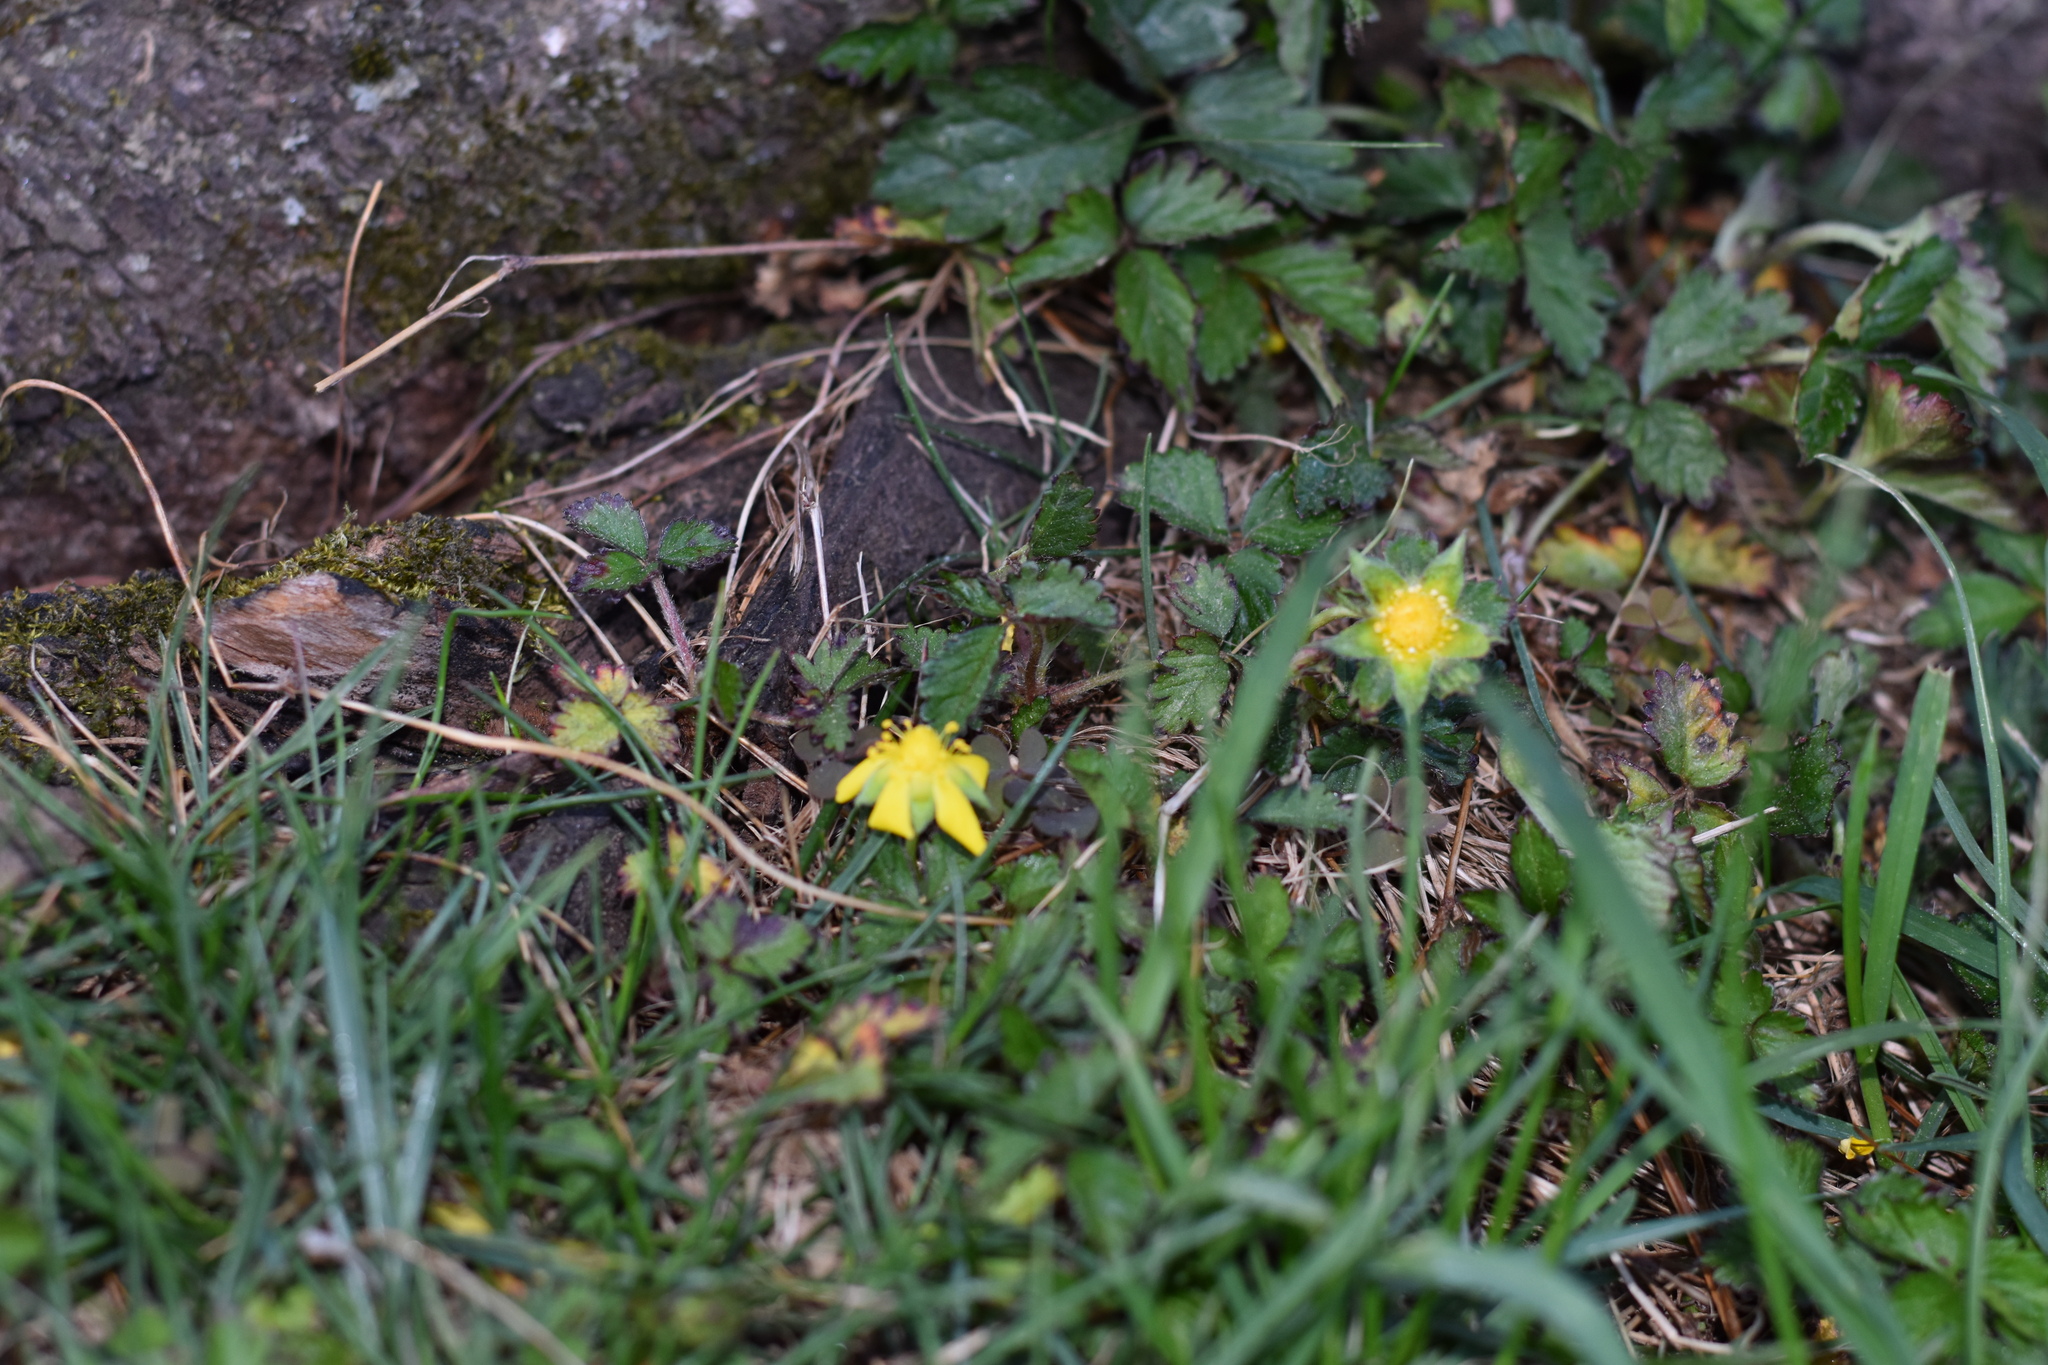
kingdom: Plantae
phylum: Tracheophyta
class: Magnoliopsida
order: Rosales
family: Rosaceae
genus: Potentilla
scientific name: Potentilla indica
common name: Yellow-flowered strawberry
